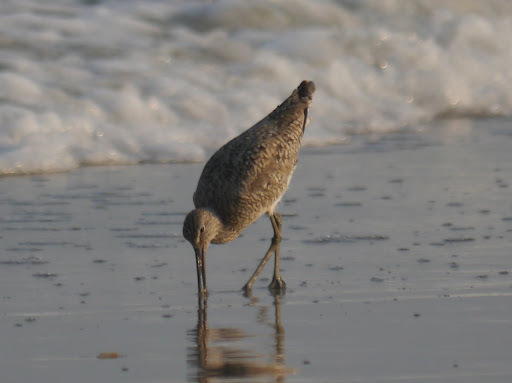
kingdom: Animalia
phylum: Chordata
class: Aves
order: Charadriiformes
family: Scolopacidae
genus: Tringa
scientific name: Tringa semipalmata
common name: Willet
